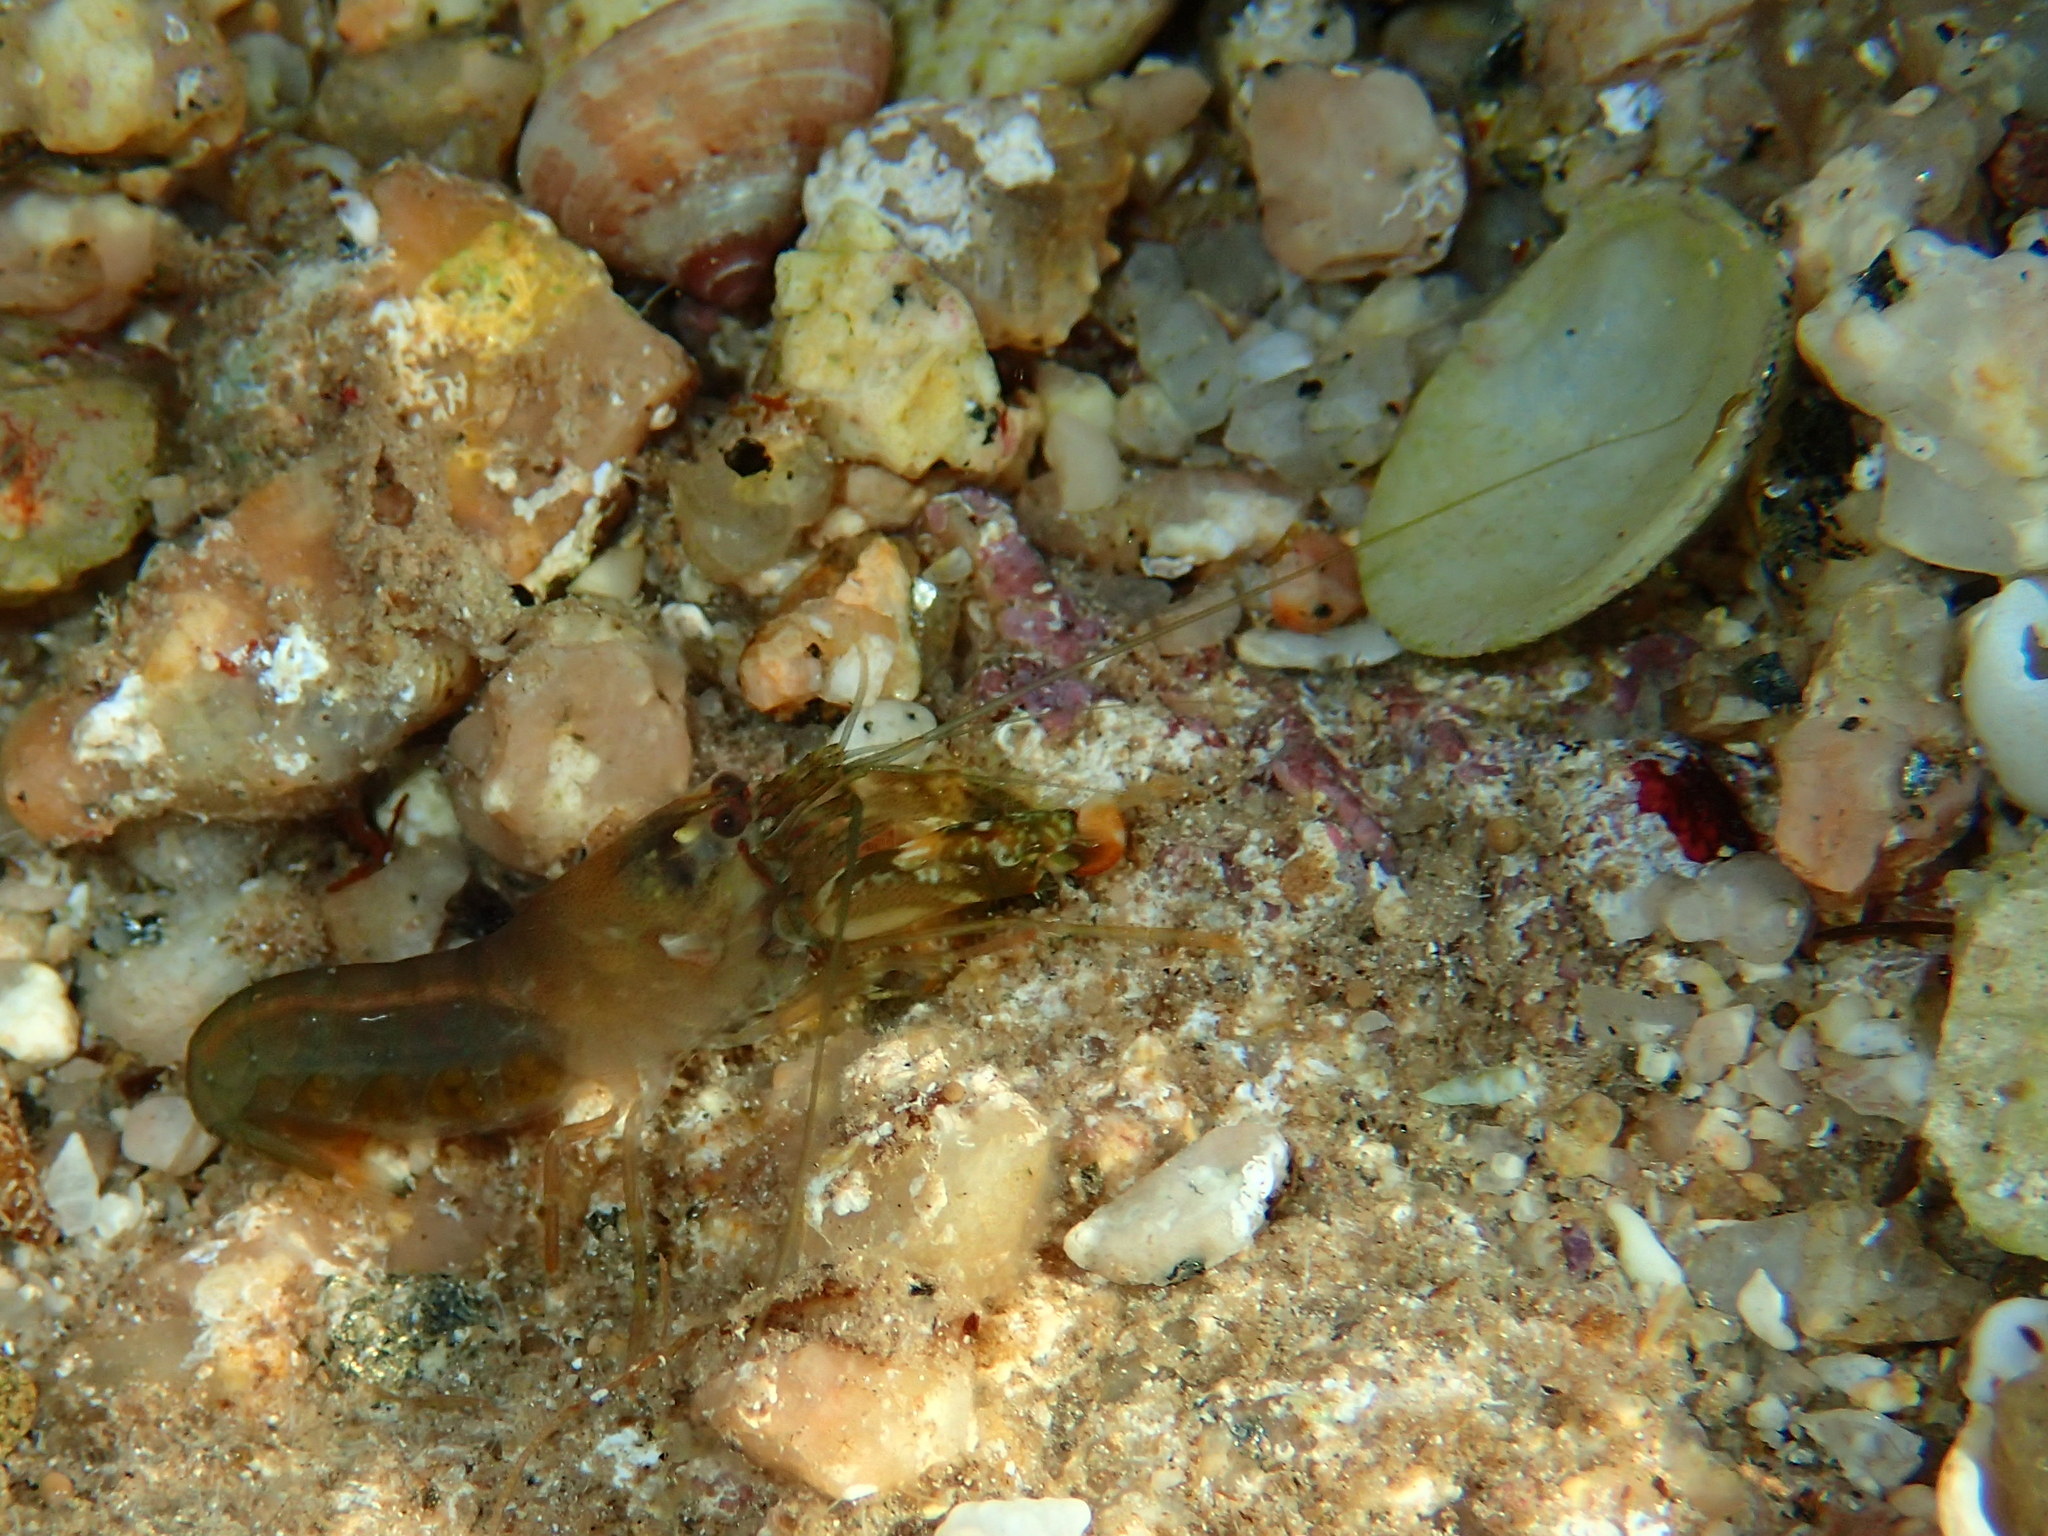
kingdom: Animalia
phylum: Arthropoda
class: Malacostraca
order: Decapoda
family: Alpheidae
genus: Alpheus
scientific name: Alpheus dentipes
